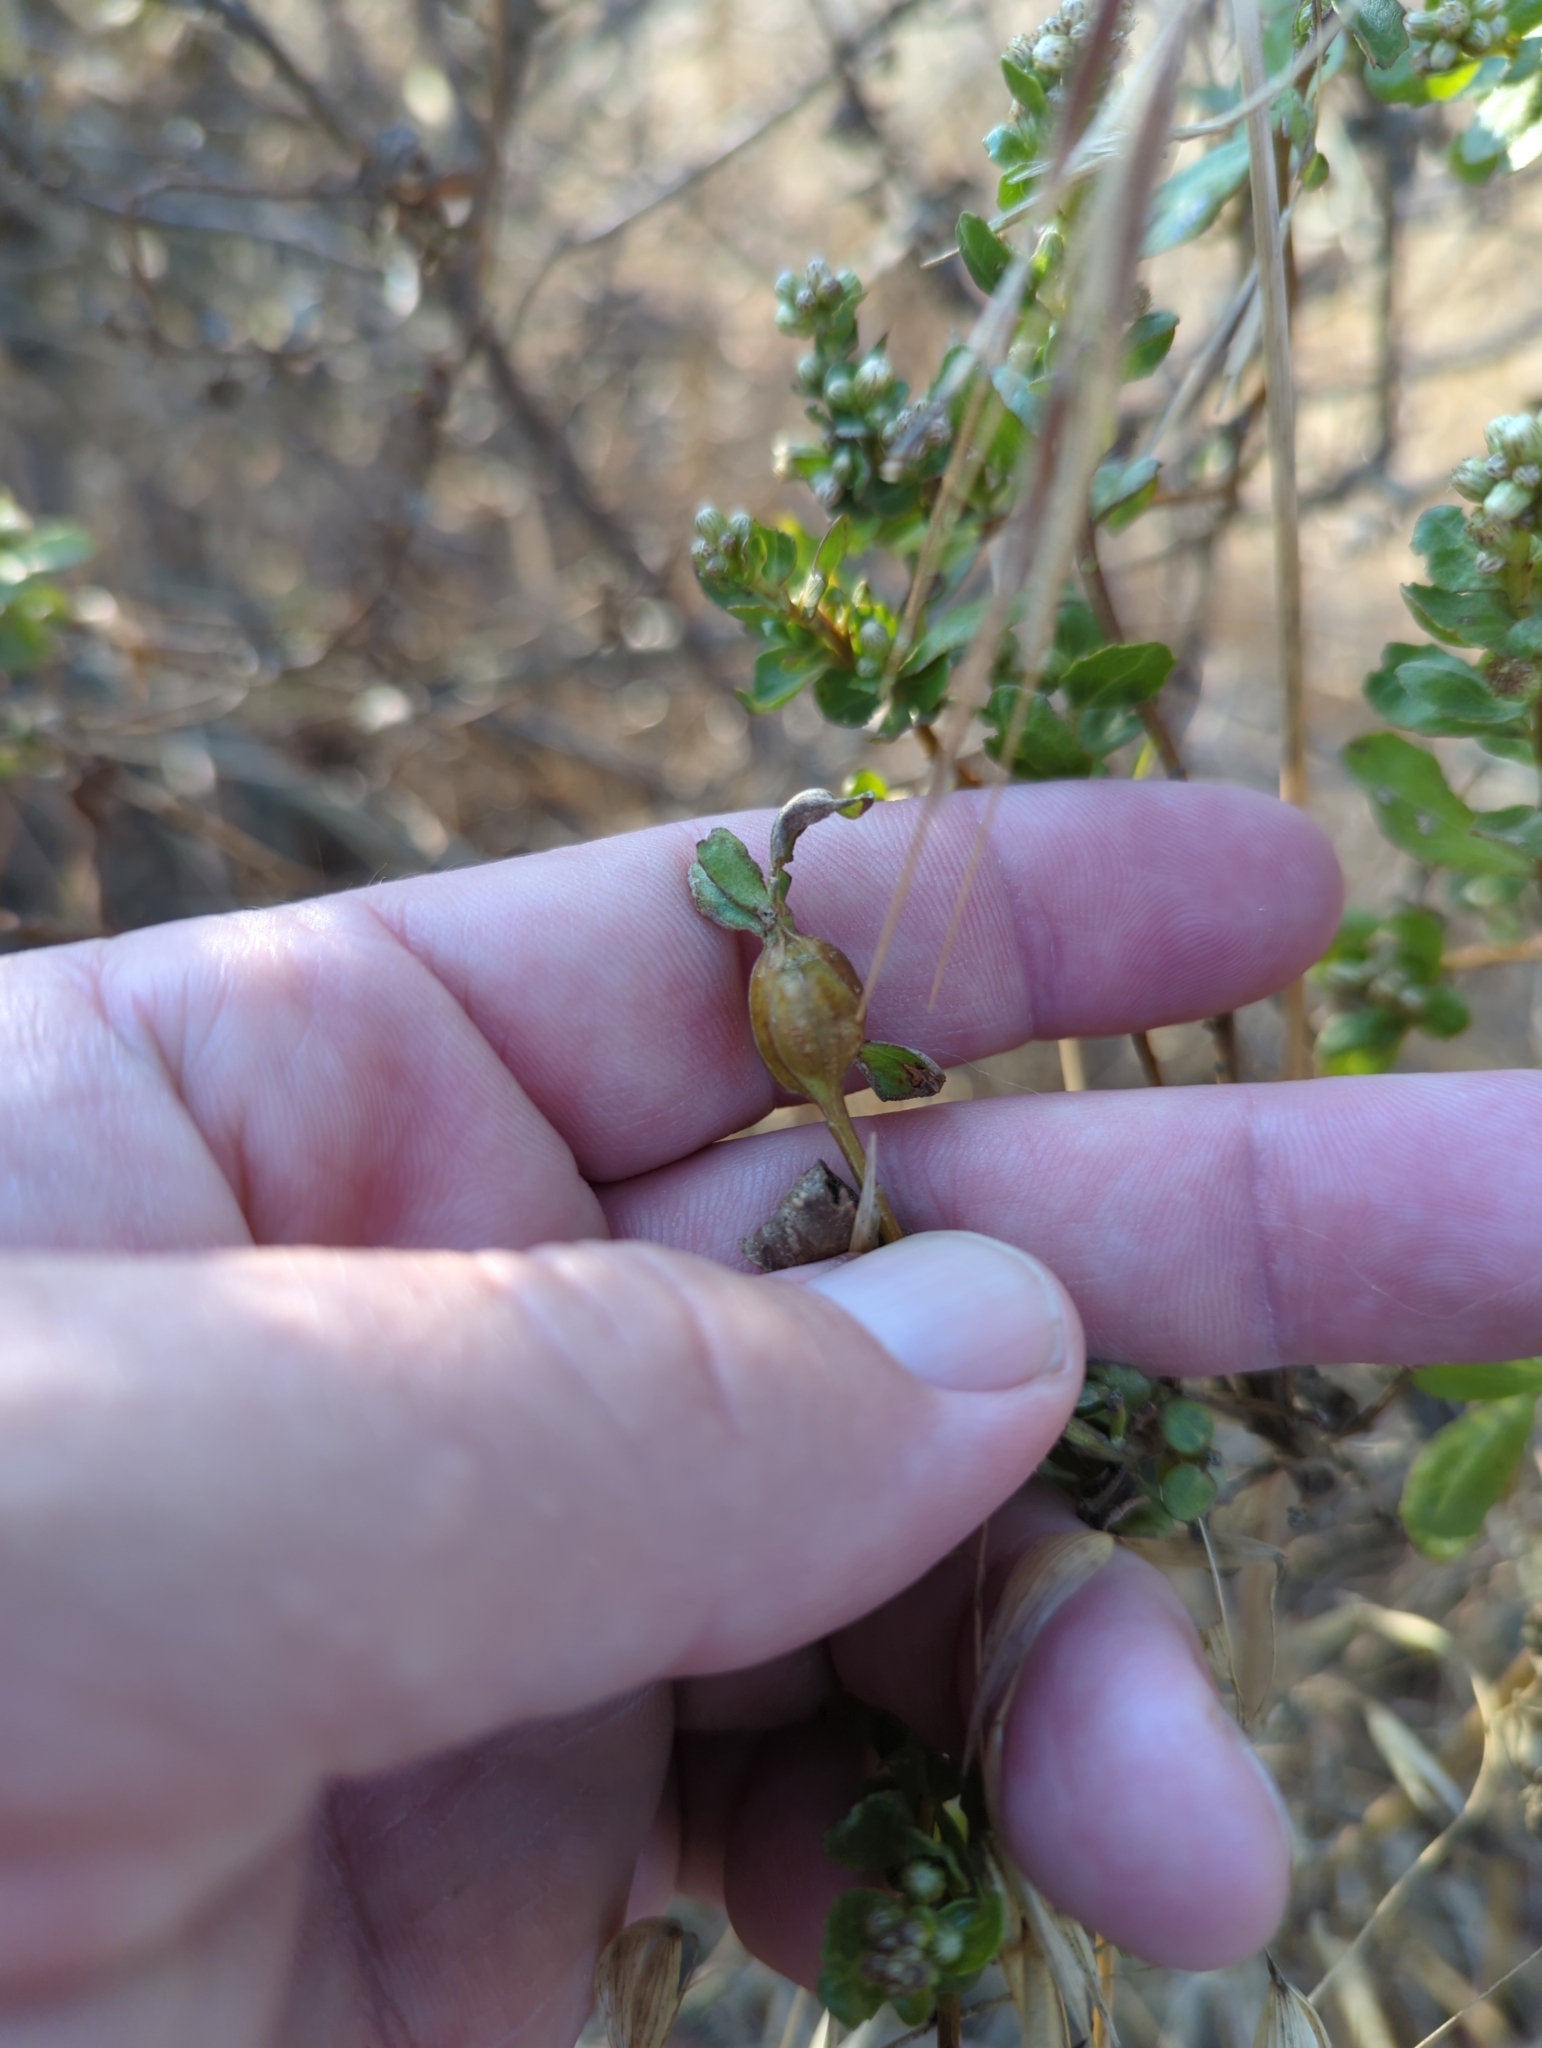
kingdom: Animalia
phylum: Arthropoda
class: Insecta
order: Lepidoptera
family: Gelechiidae
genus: Gnorimoschema
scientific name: Gnorimoschema baccharisella
